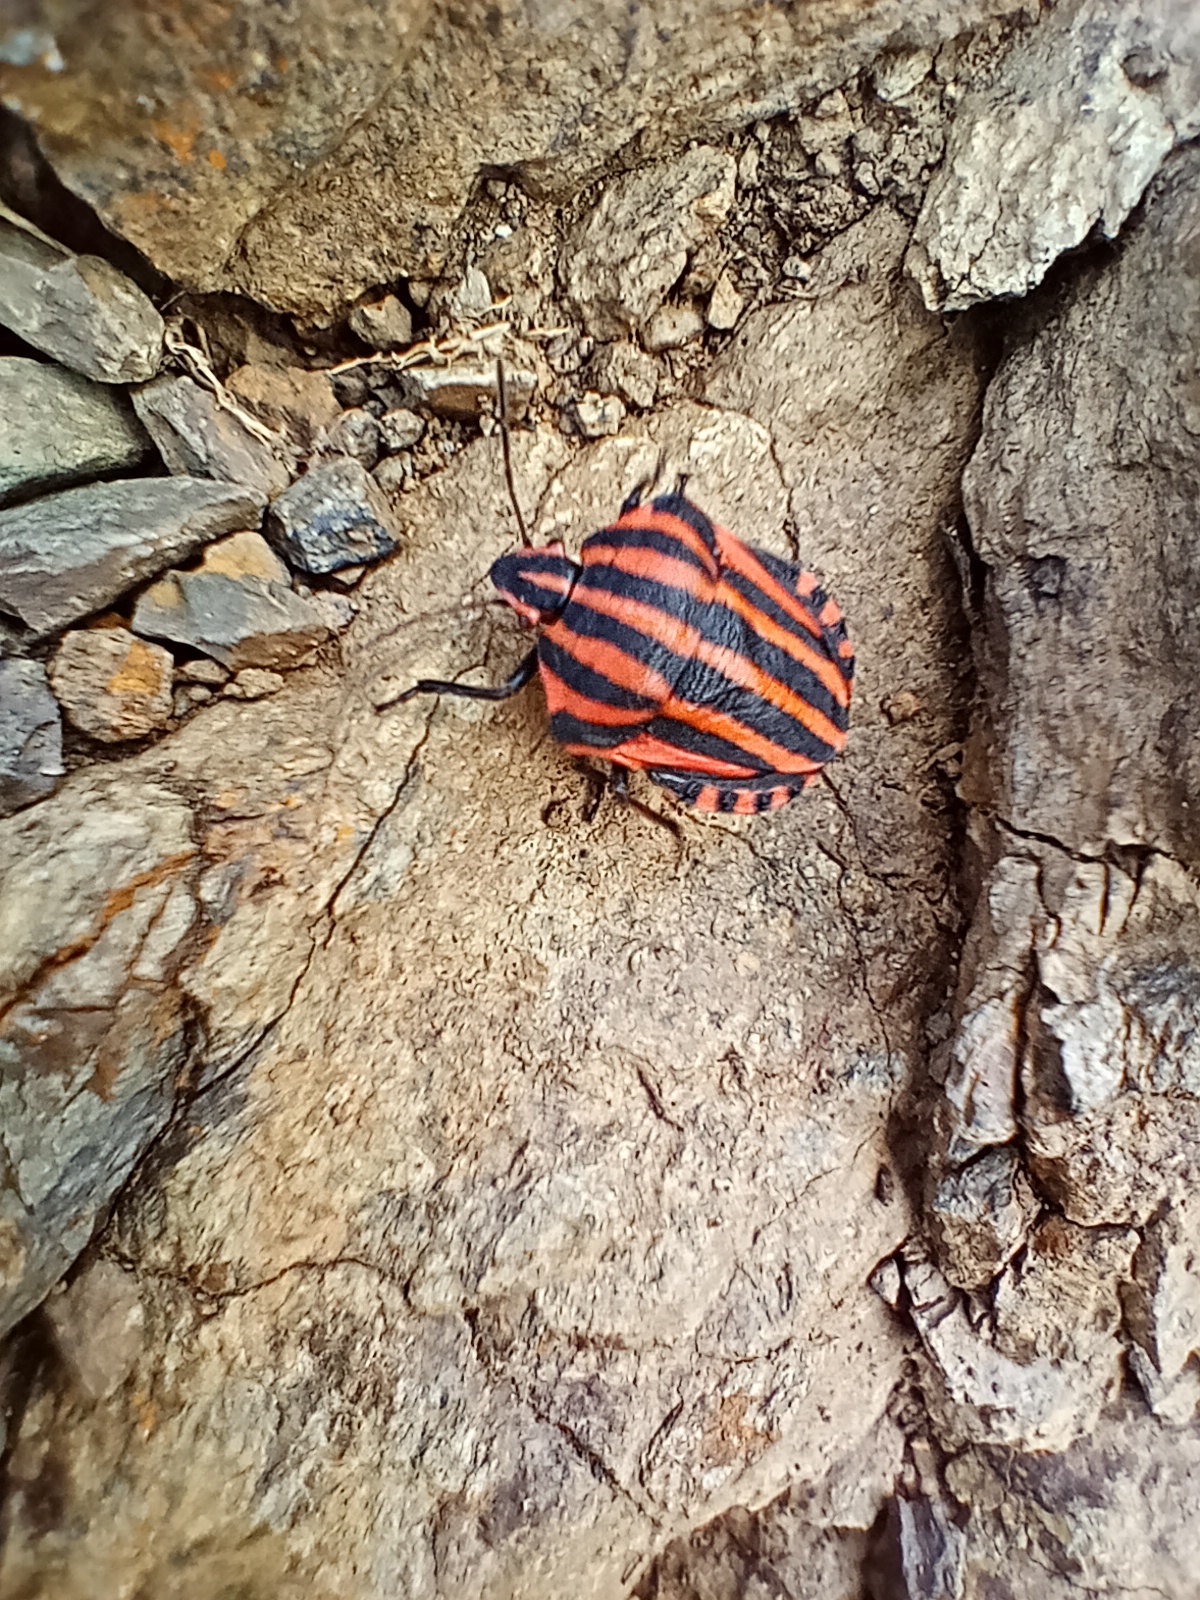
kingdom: Animalia
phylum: Arthropoda
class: Insecta
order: Hemiptera
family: Pentatomidae
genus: Graphosoma
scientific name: Graphosoma italicum
